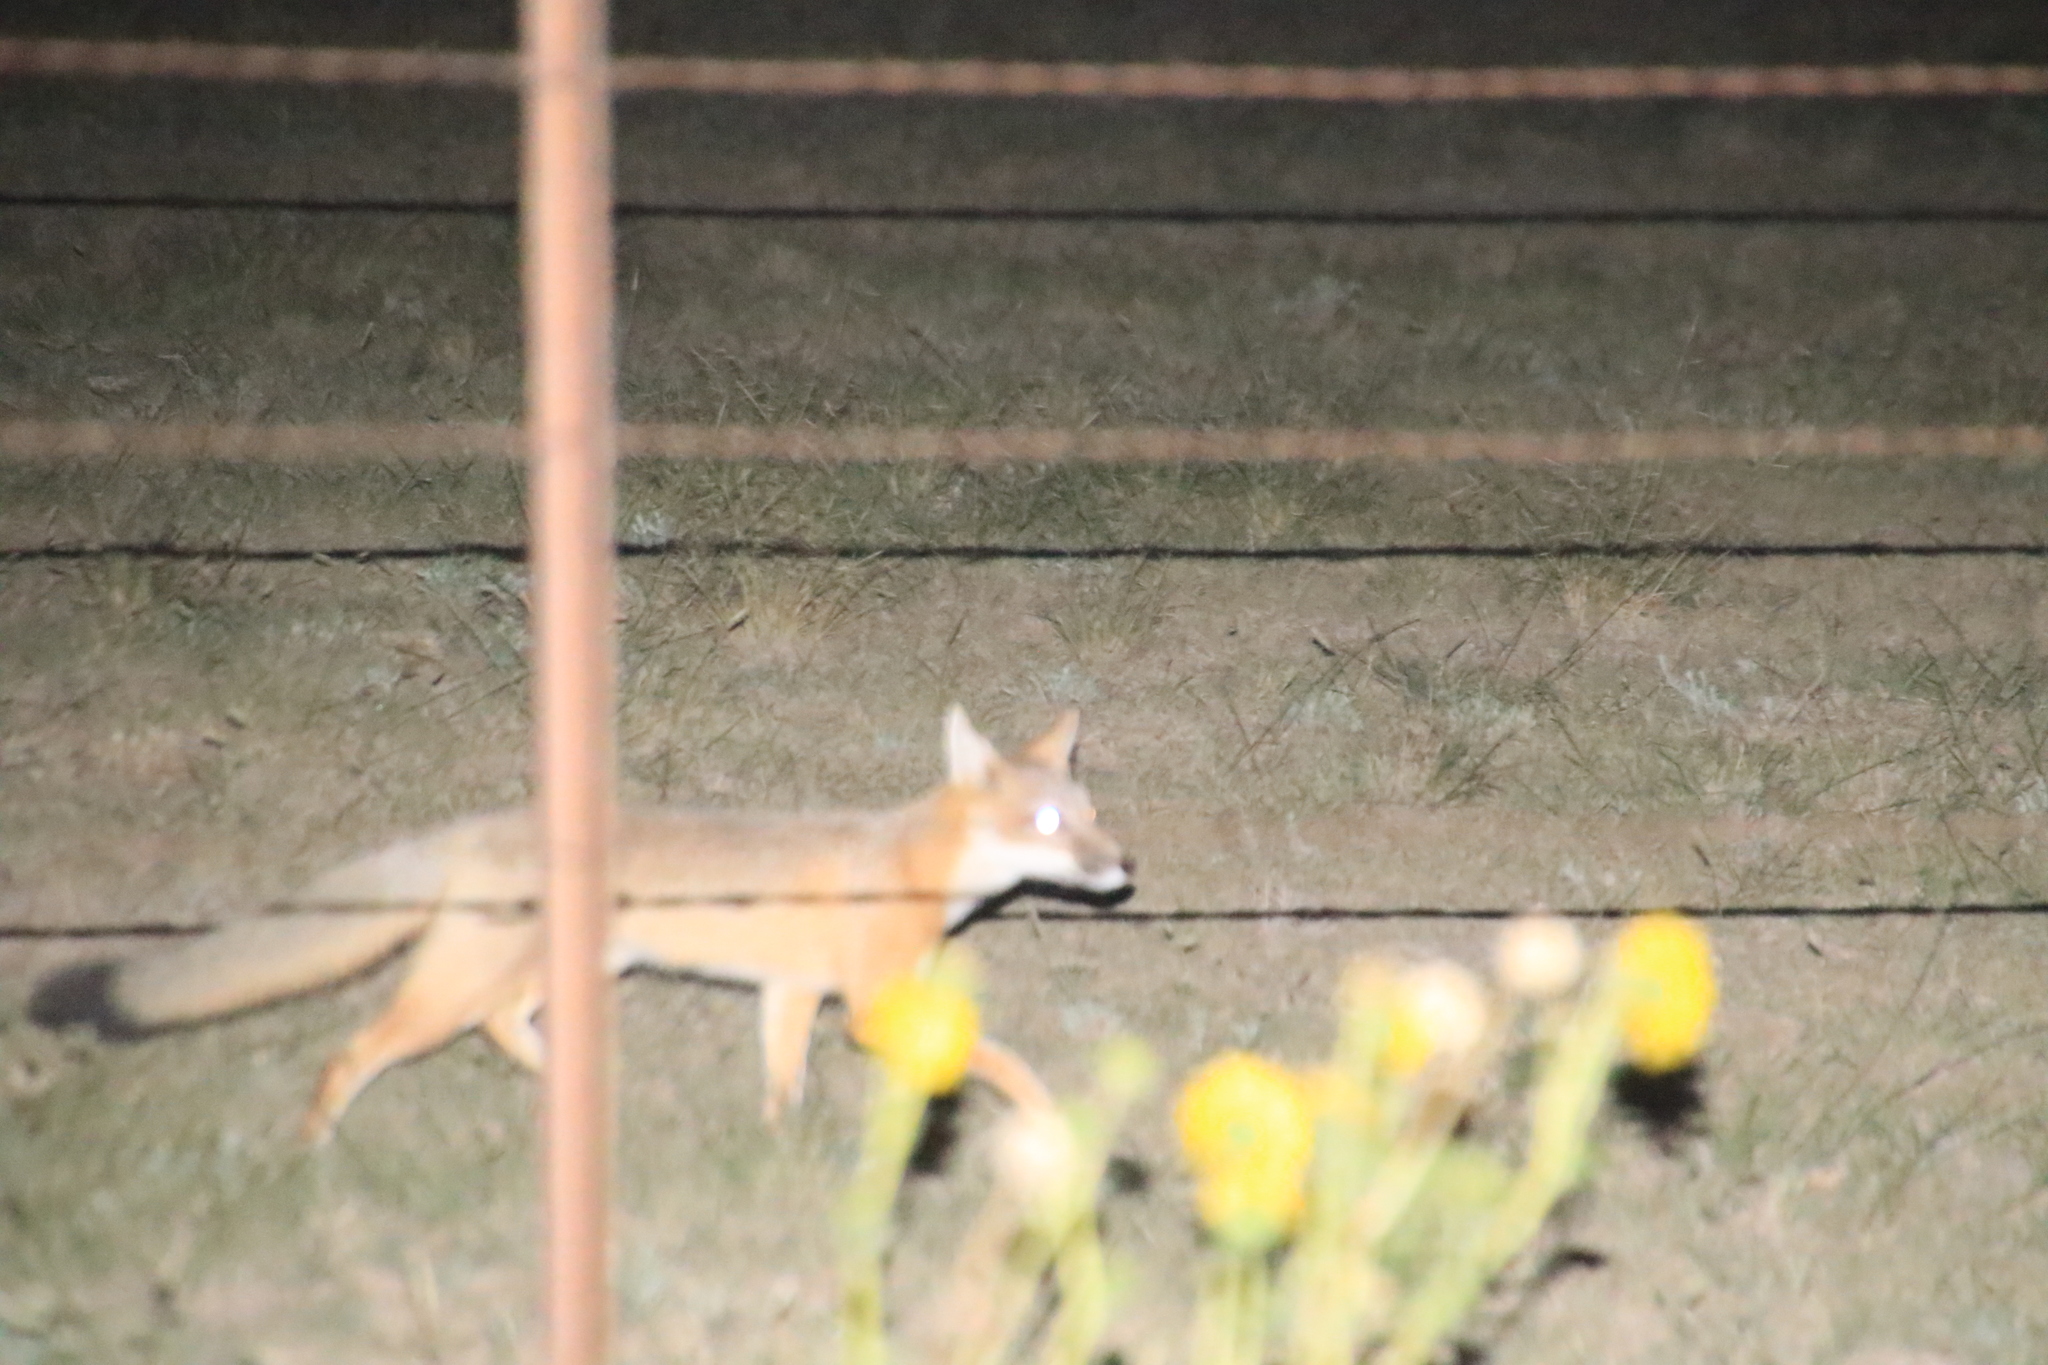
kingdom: Animalia
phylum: Chordata
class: Mammalia
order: Carnivora
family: Canidae
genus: Vulpes
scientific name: Vulpes velox
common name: Swift fox
